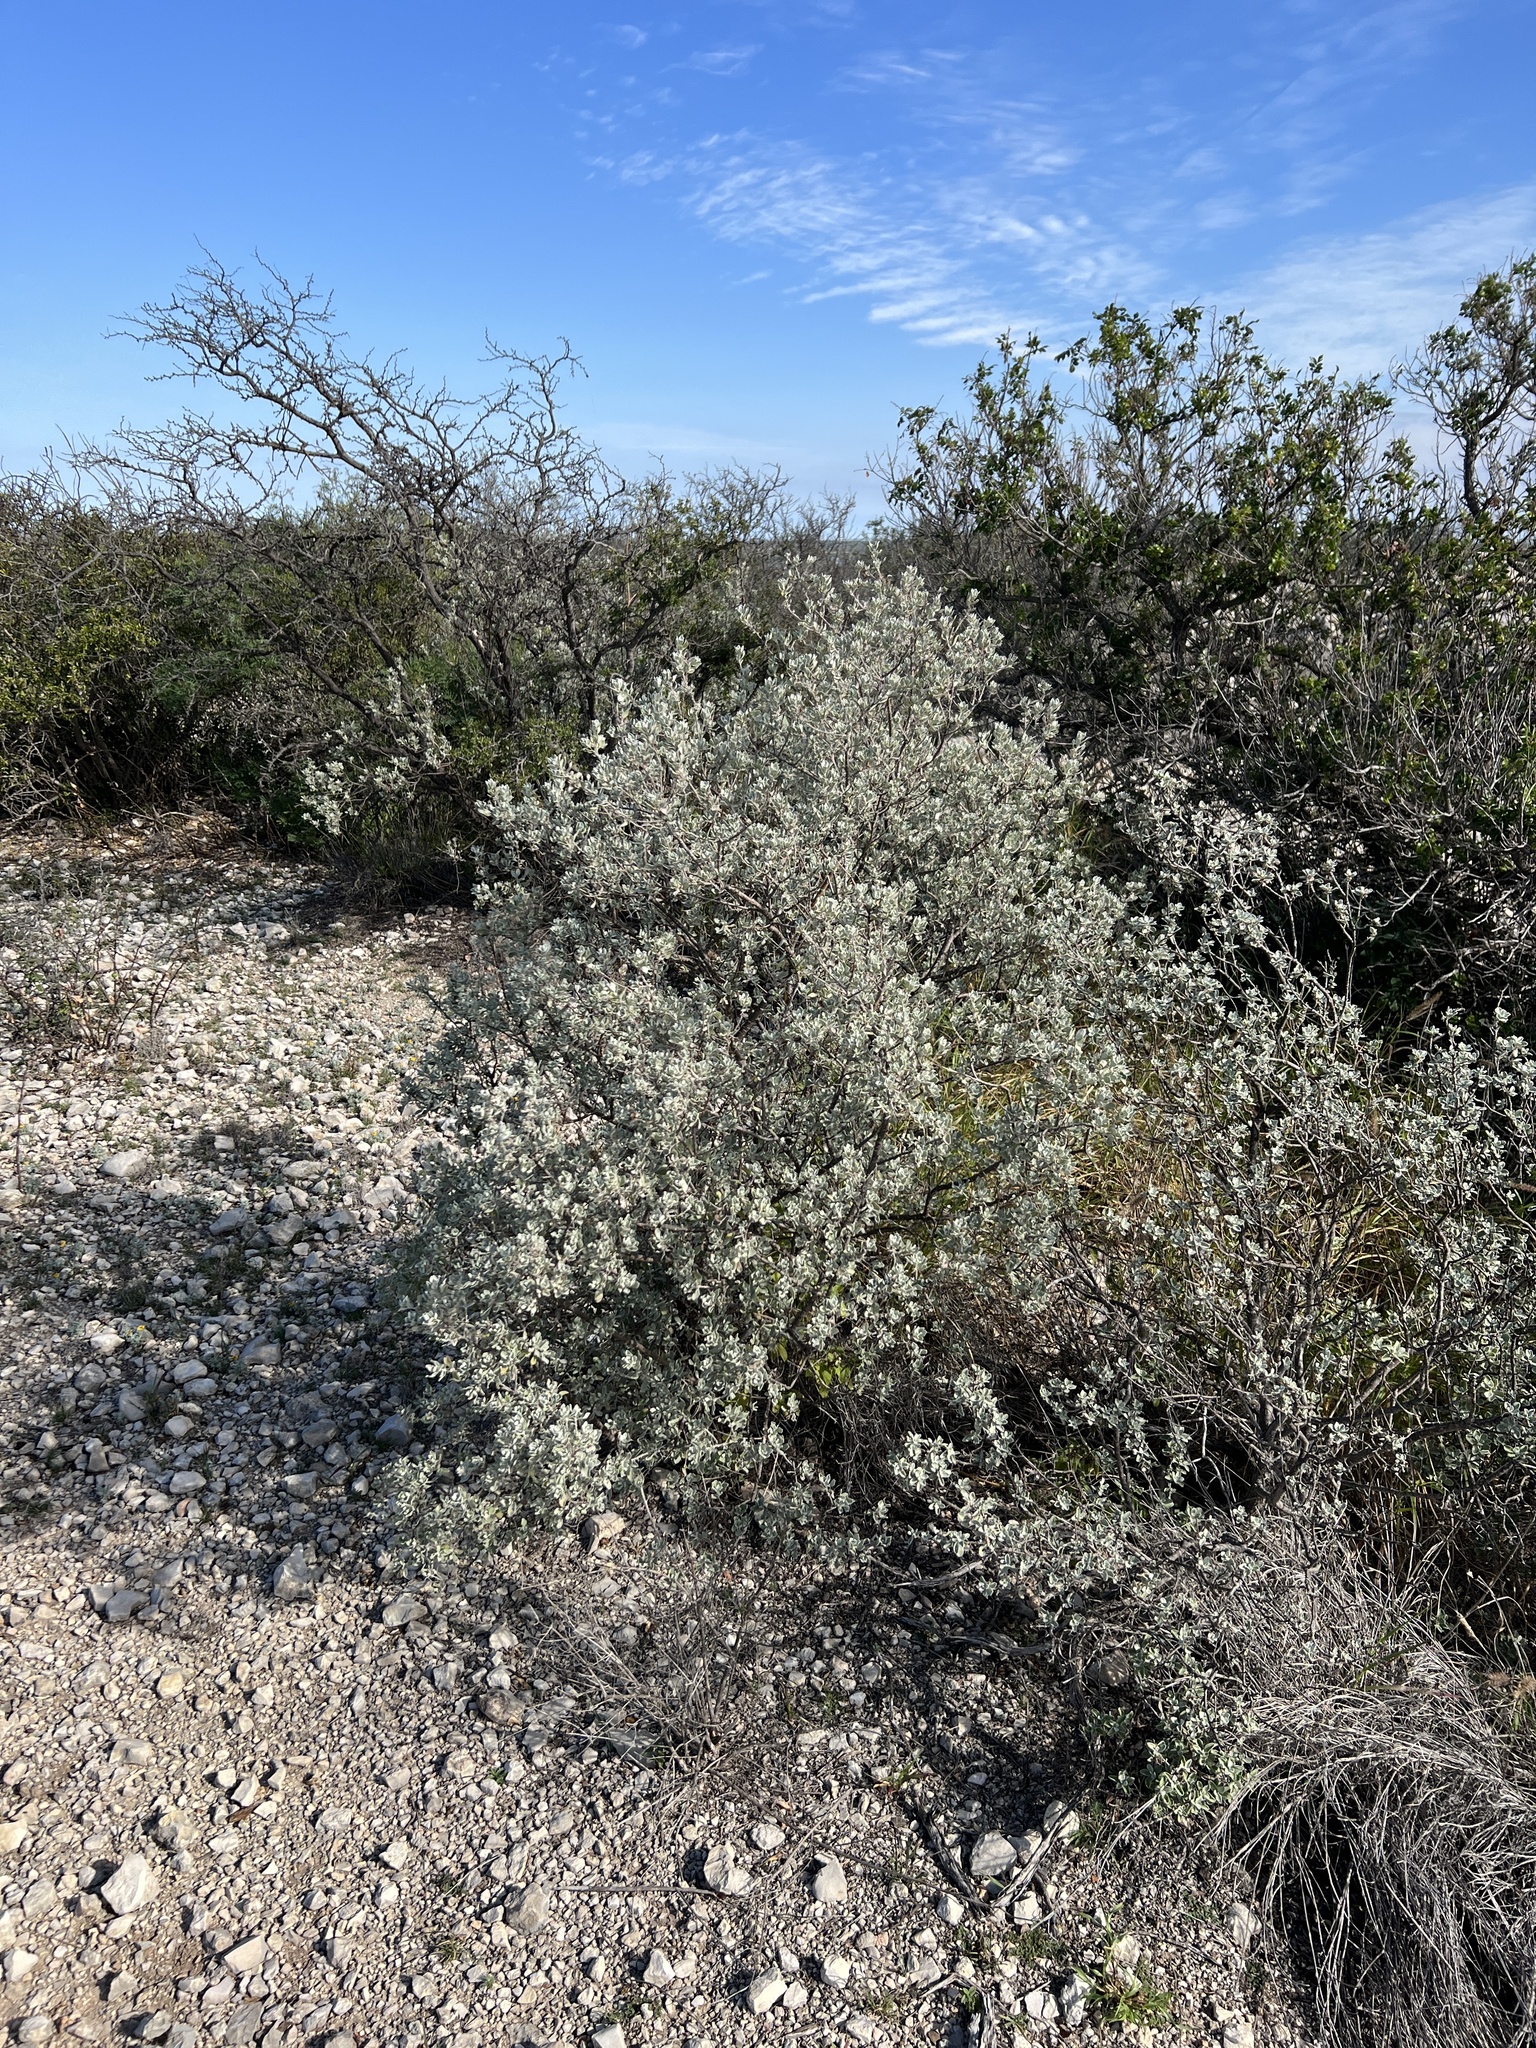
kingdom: Plantae
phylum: Tracheophyta
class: Magnoliopsida
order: Lamiales
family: Scrophulariaceae
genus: Leucophyllum
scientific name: Leucophyllum frutescens
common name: Texas silverleaf
